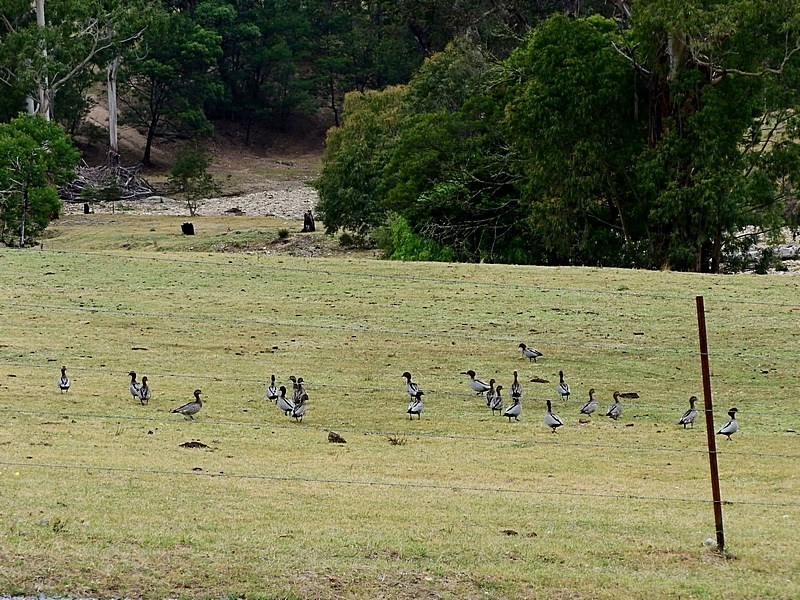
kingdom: Animalia
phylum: Chordata
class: Aves
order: Anseriformes
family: Anatidae
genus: Chenonetta
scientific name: Chenonetta jubata
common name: Maned duck
